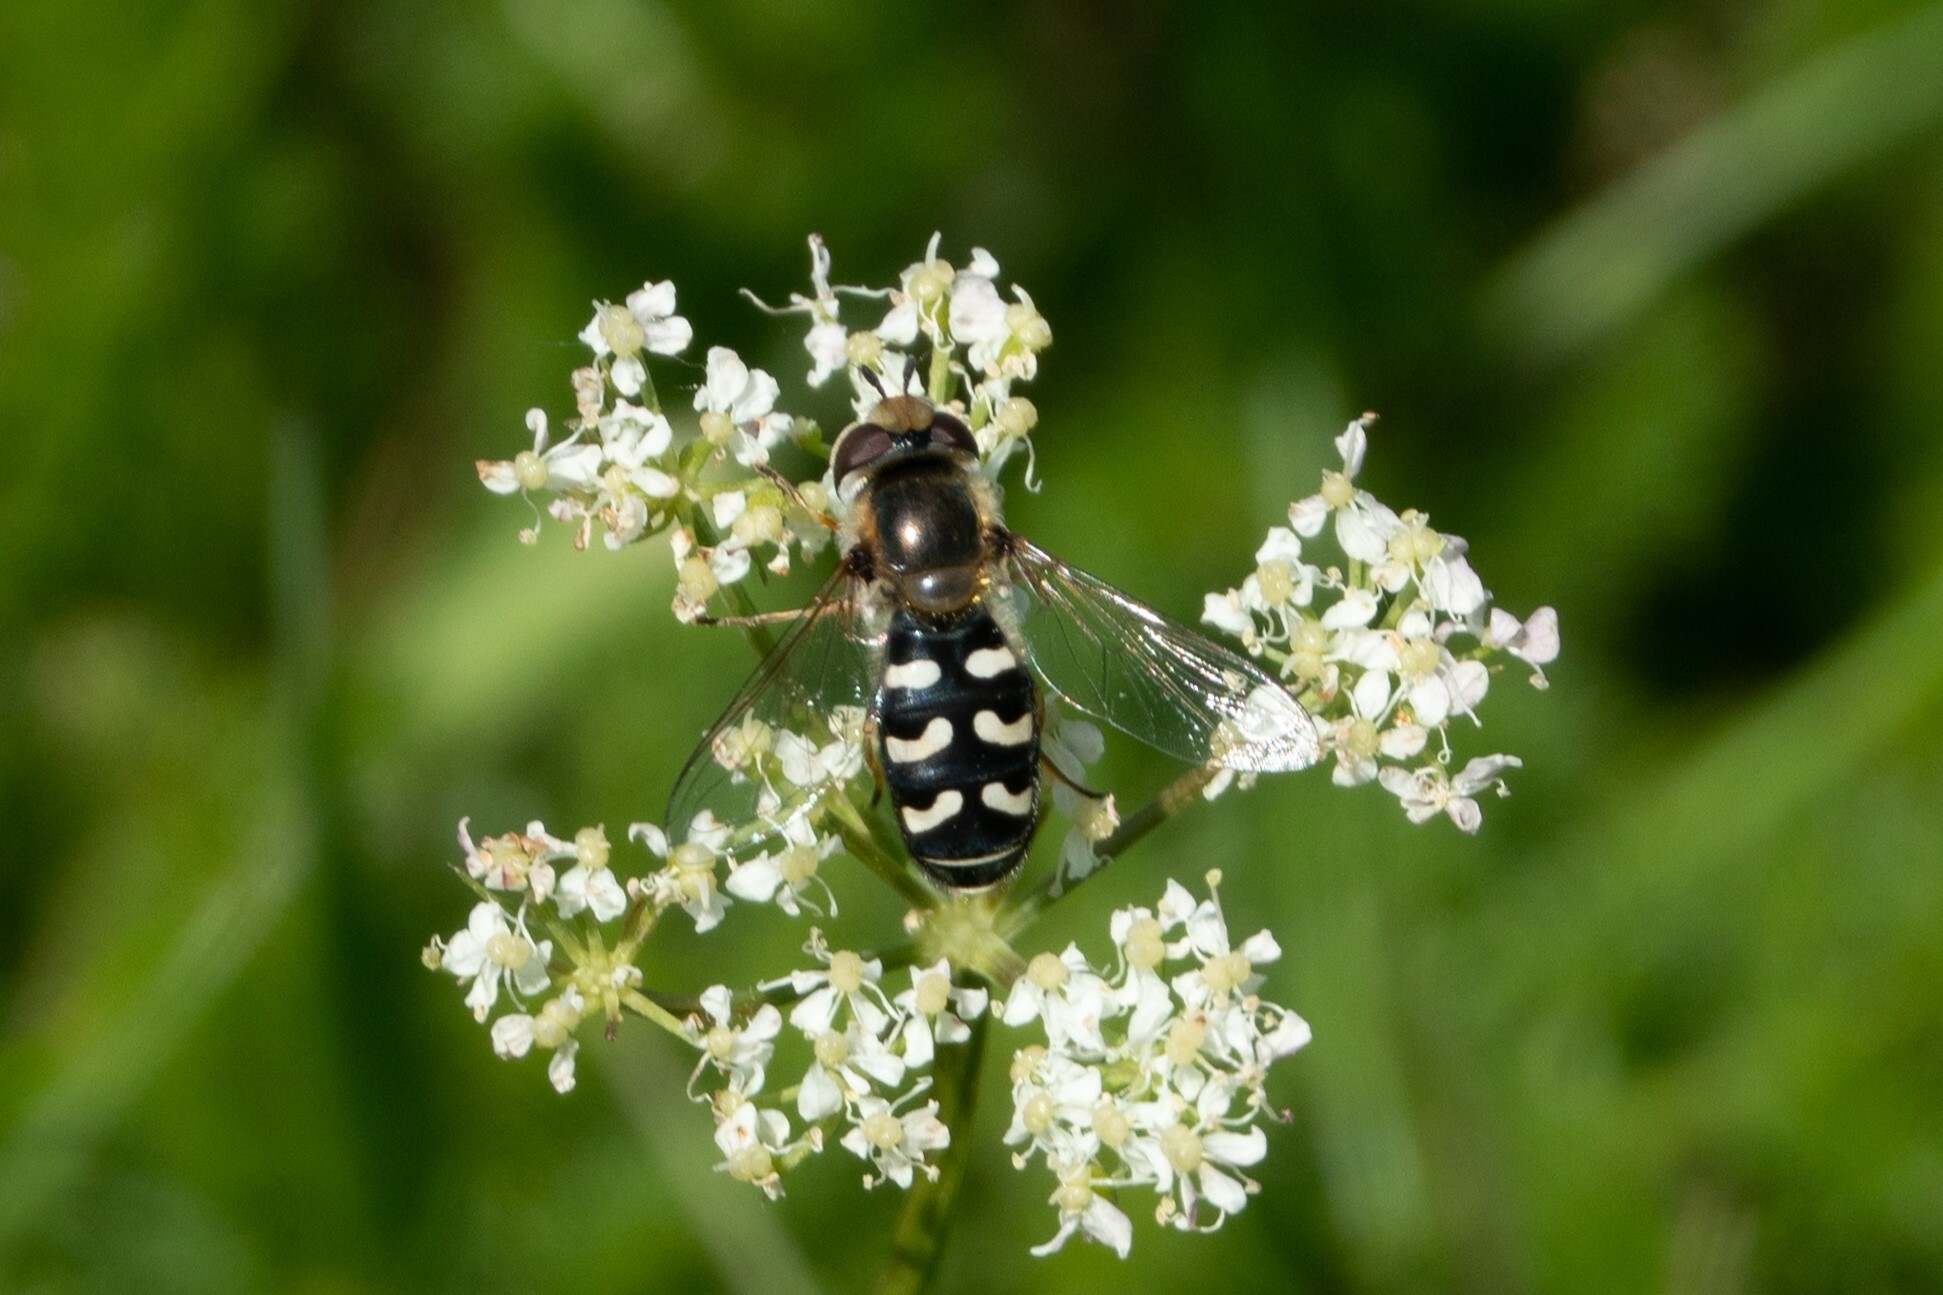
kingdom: Animalia
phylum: Arthropoda
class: Insecta
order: Diptera
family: Syrphidae
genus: Scaeva
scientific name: Scaeva pyrastri
